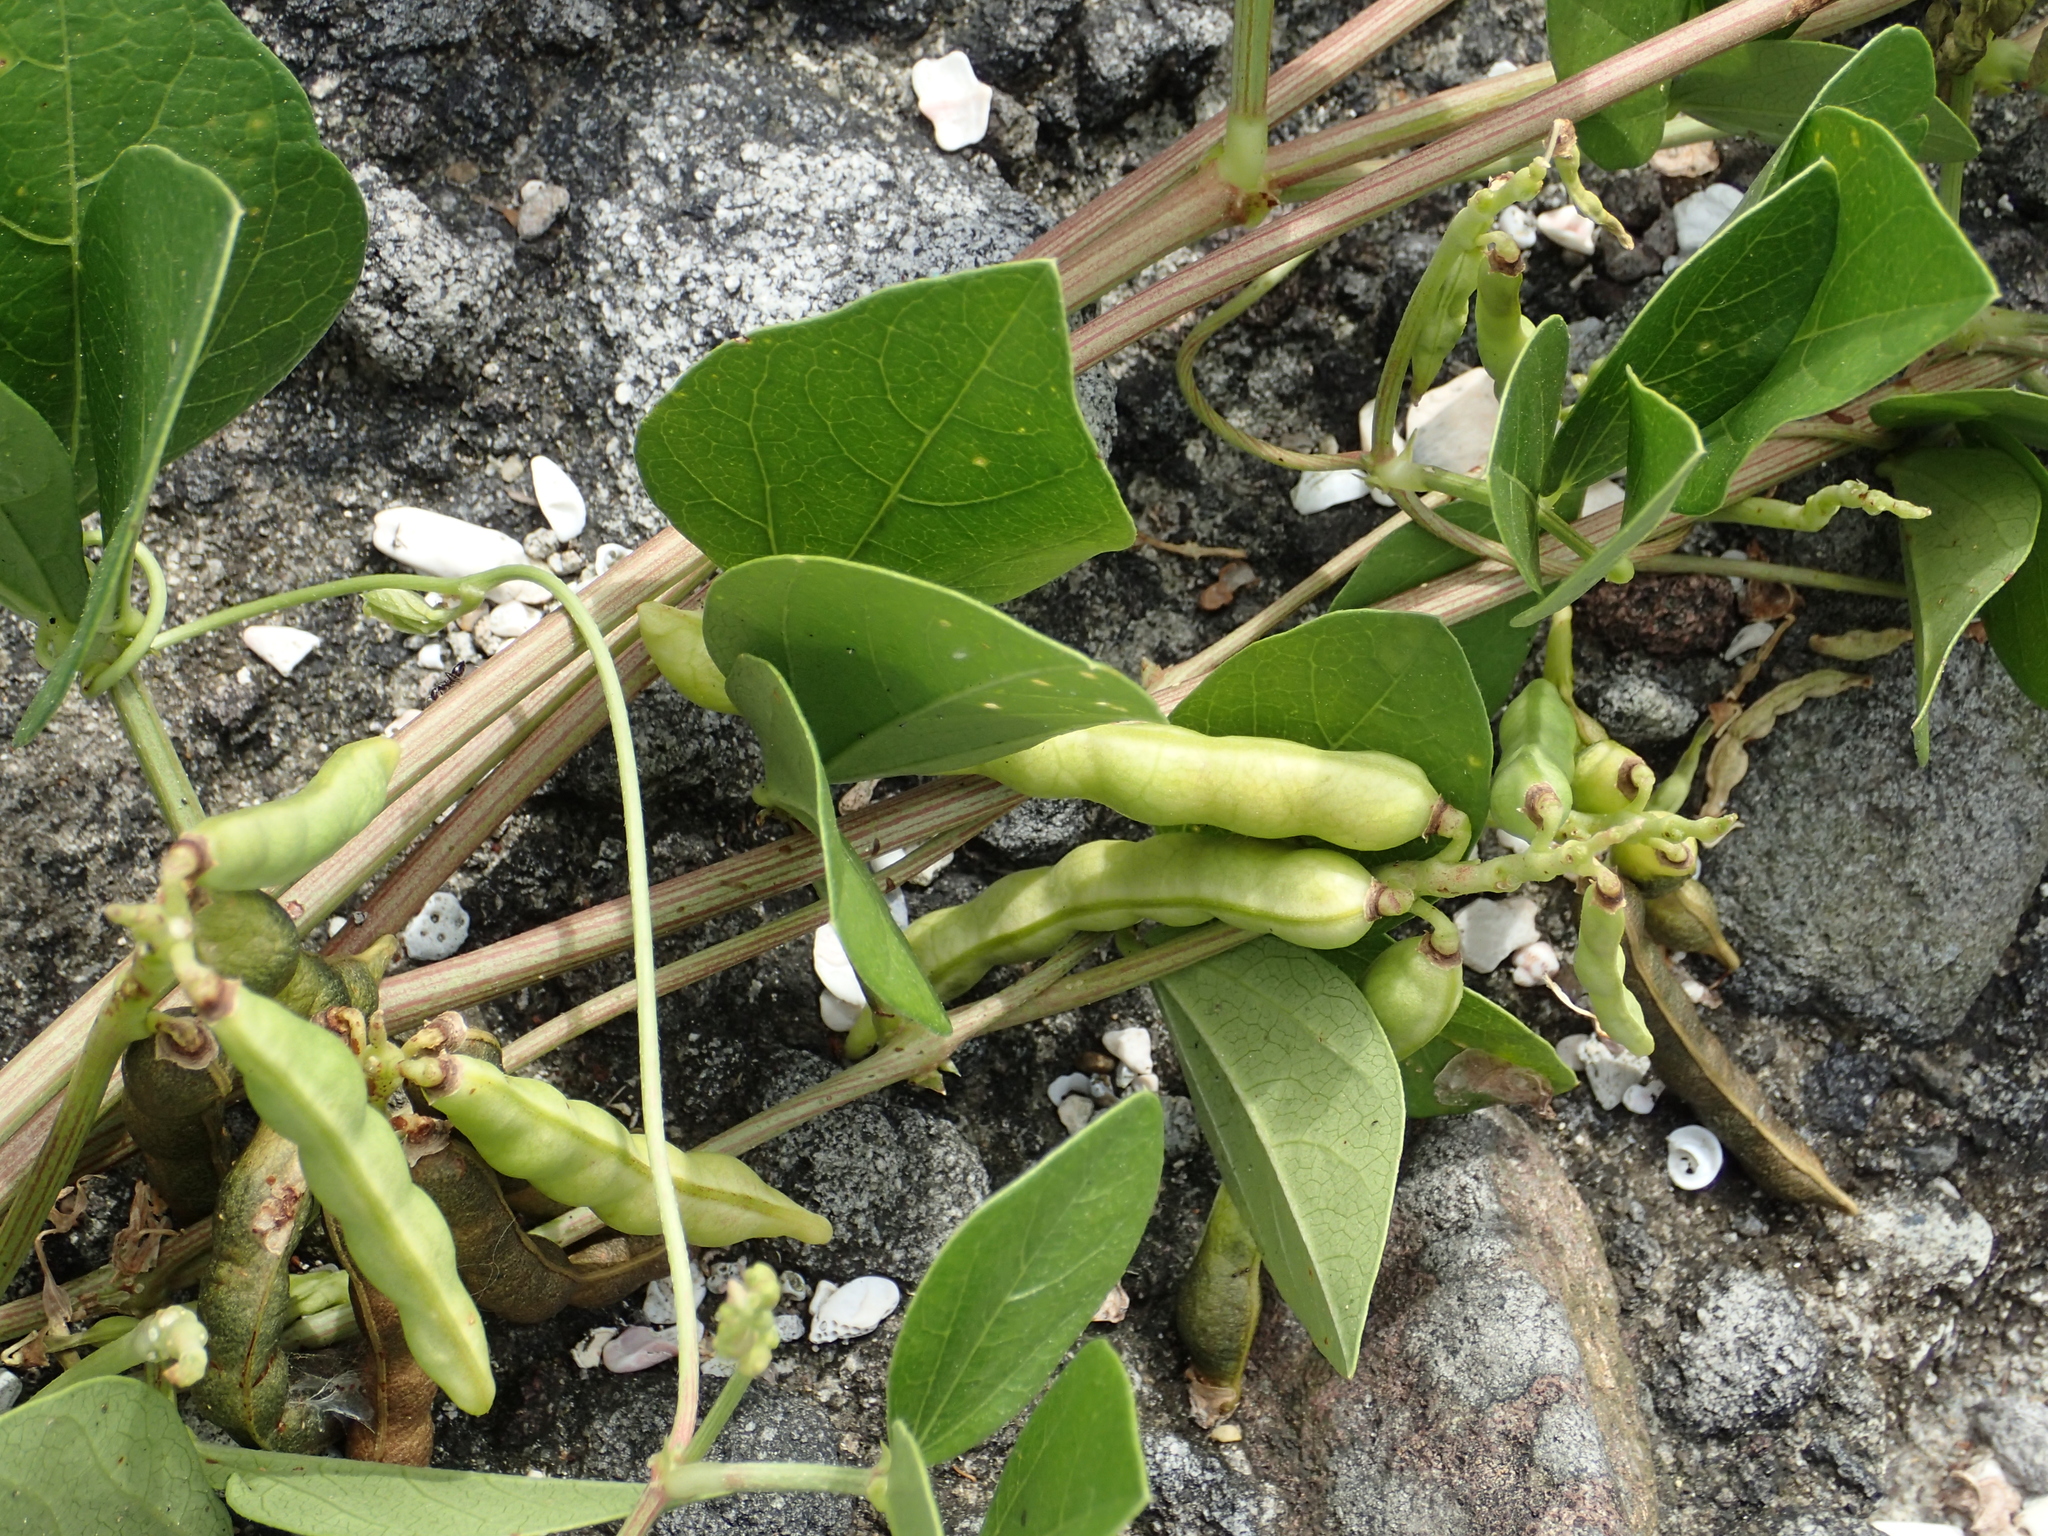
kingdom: Plantae
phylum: Tracheophyta
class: Magnoliopsida
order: Fabales
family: Fabaceae
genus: Vigna
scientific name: Vigna marina
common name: Dune-bean
